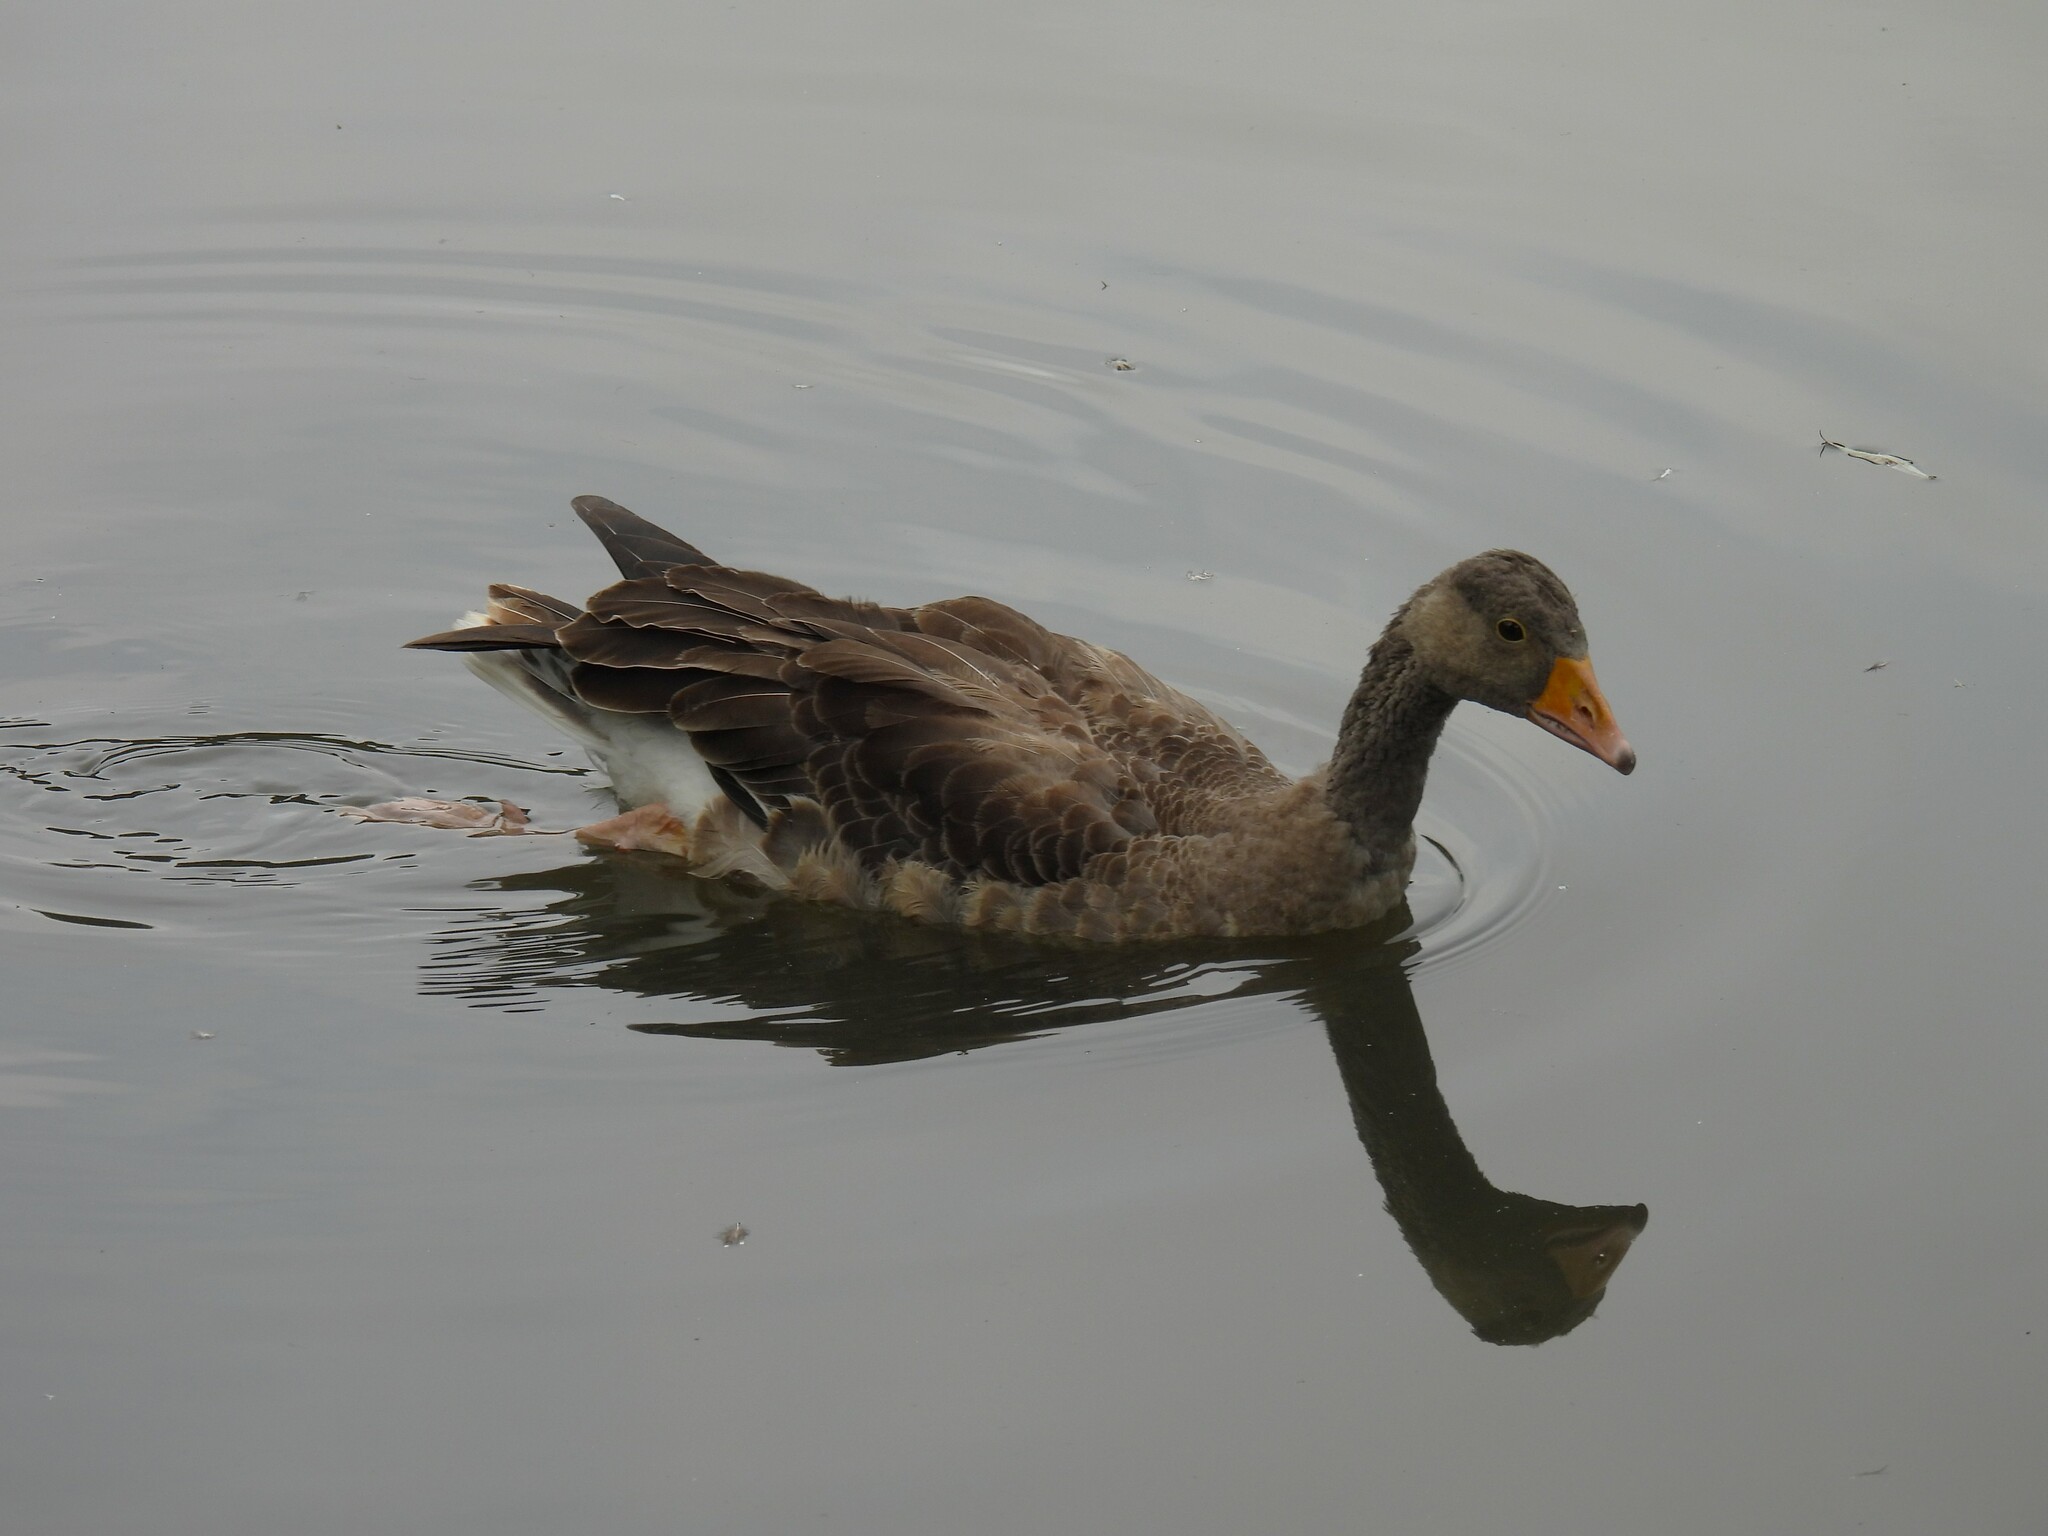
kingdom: Animalia
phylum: Chordata
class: Aves
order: Anseriformes
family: Anatidae
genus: Anser
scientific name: Anser anser
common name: Greylag goose
